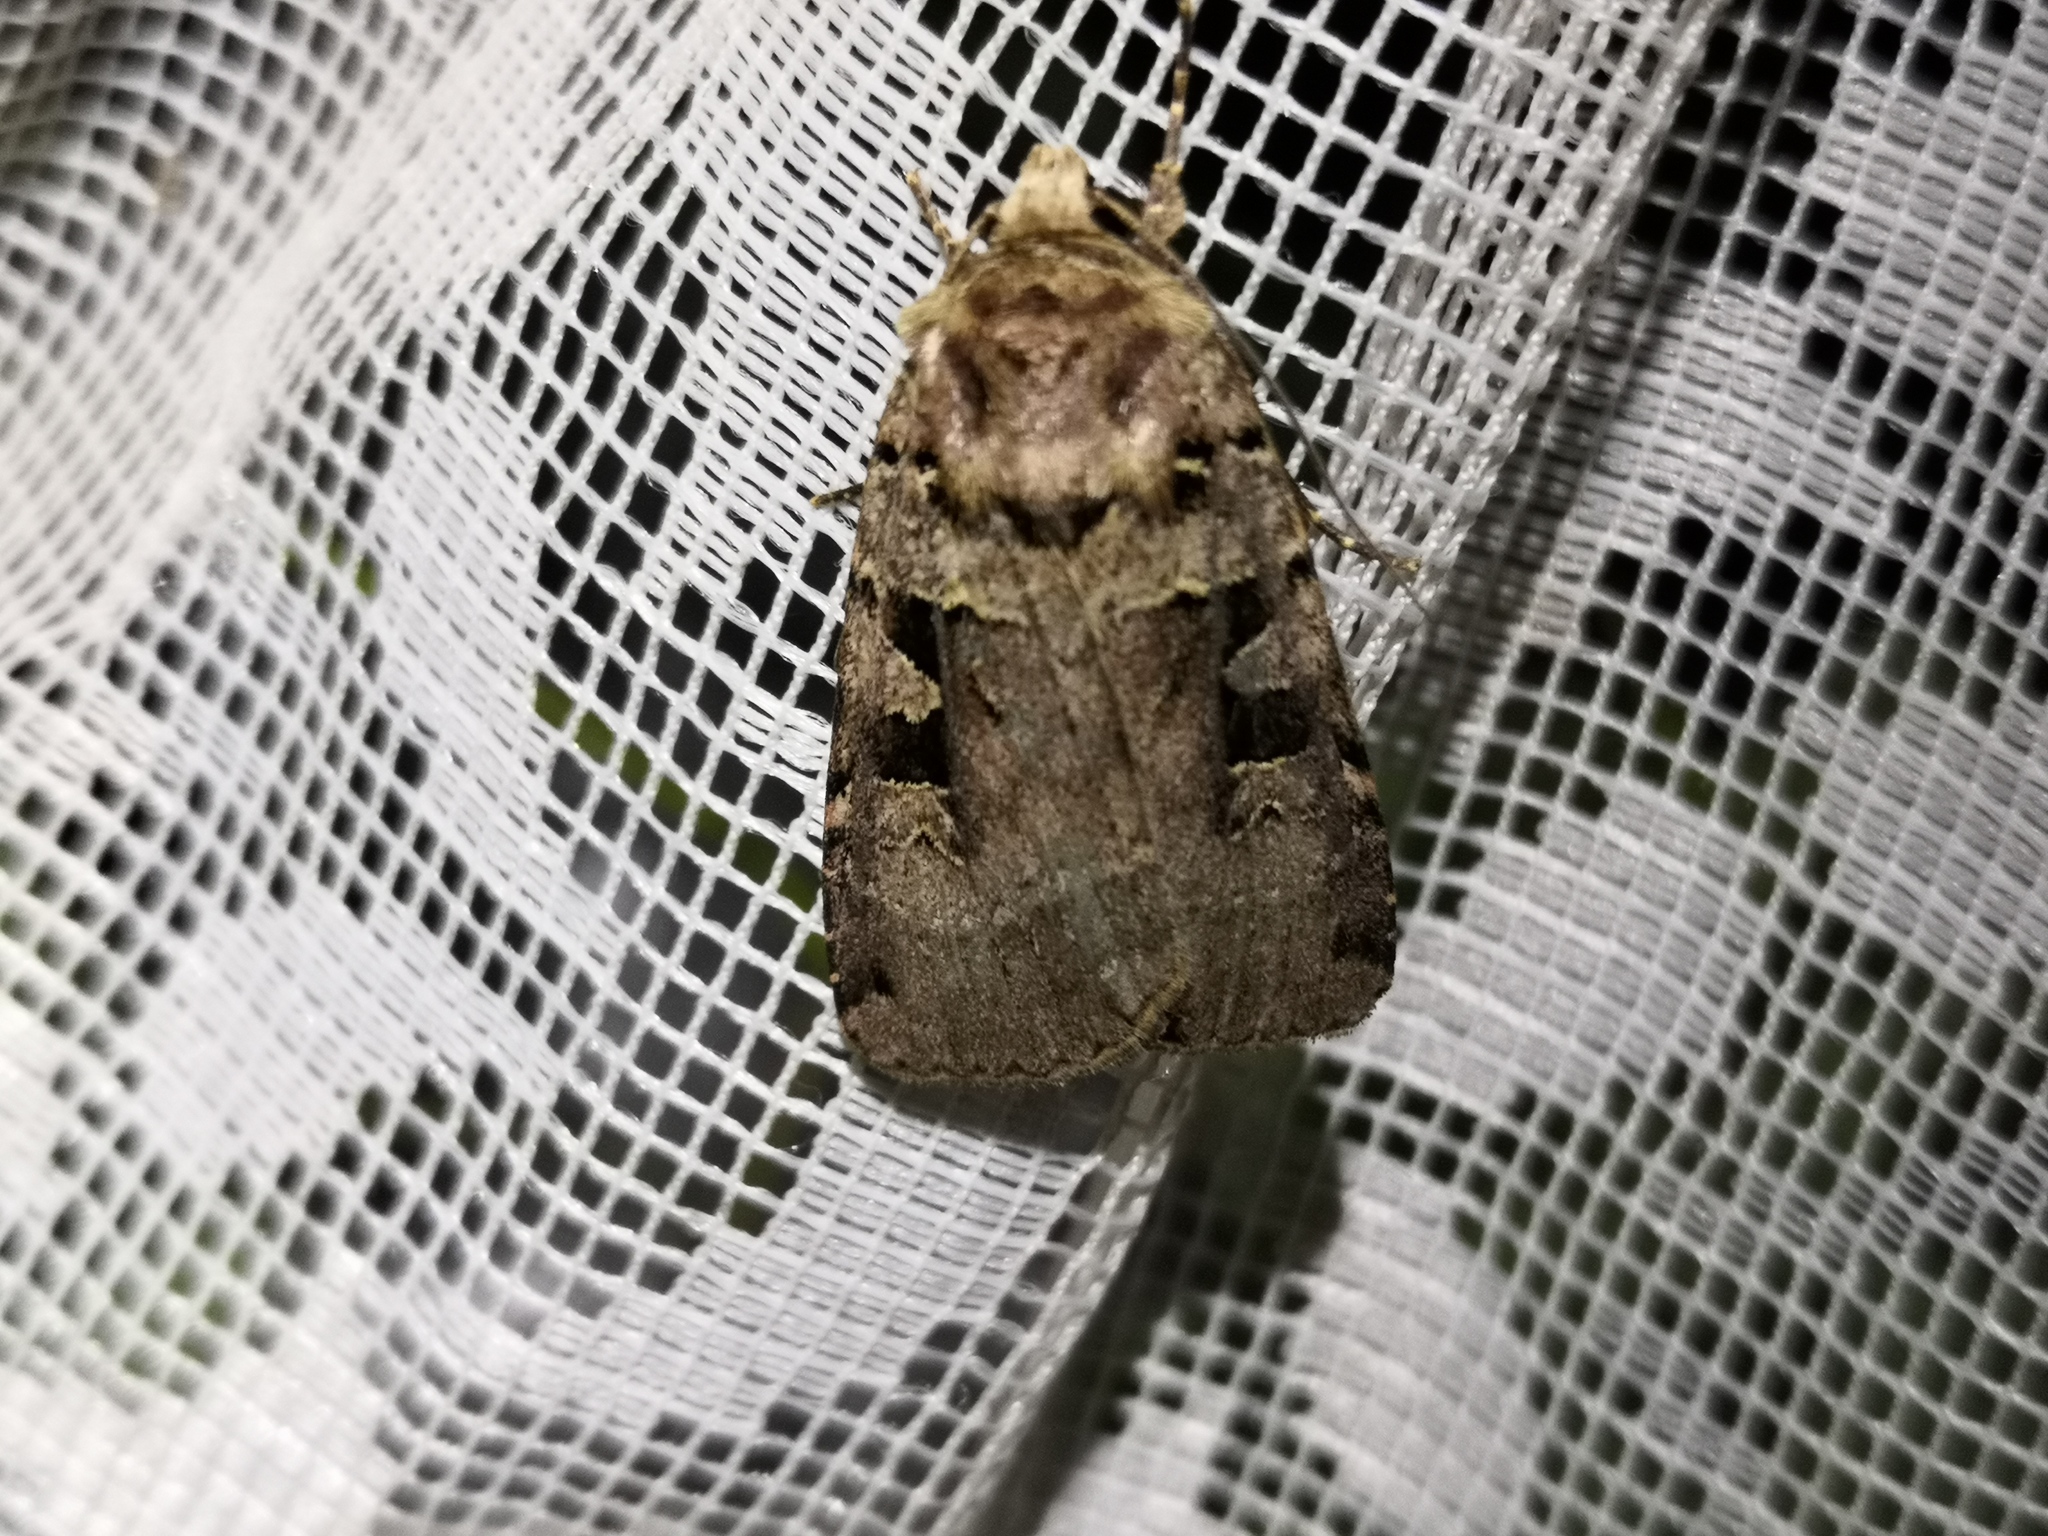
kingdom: Animalia
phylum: Arthropoda
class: Insecta
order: Lepidoptera
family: Noctuidae
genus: Xestia
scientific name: Xestia triangulum
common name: Double square-spot
